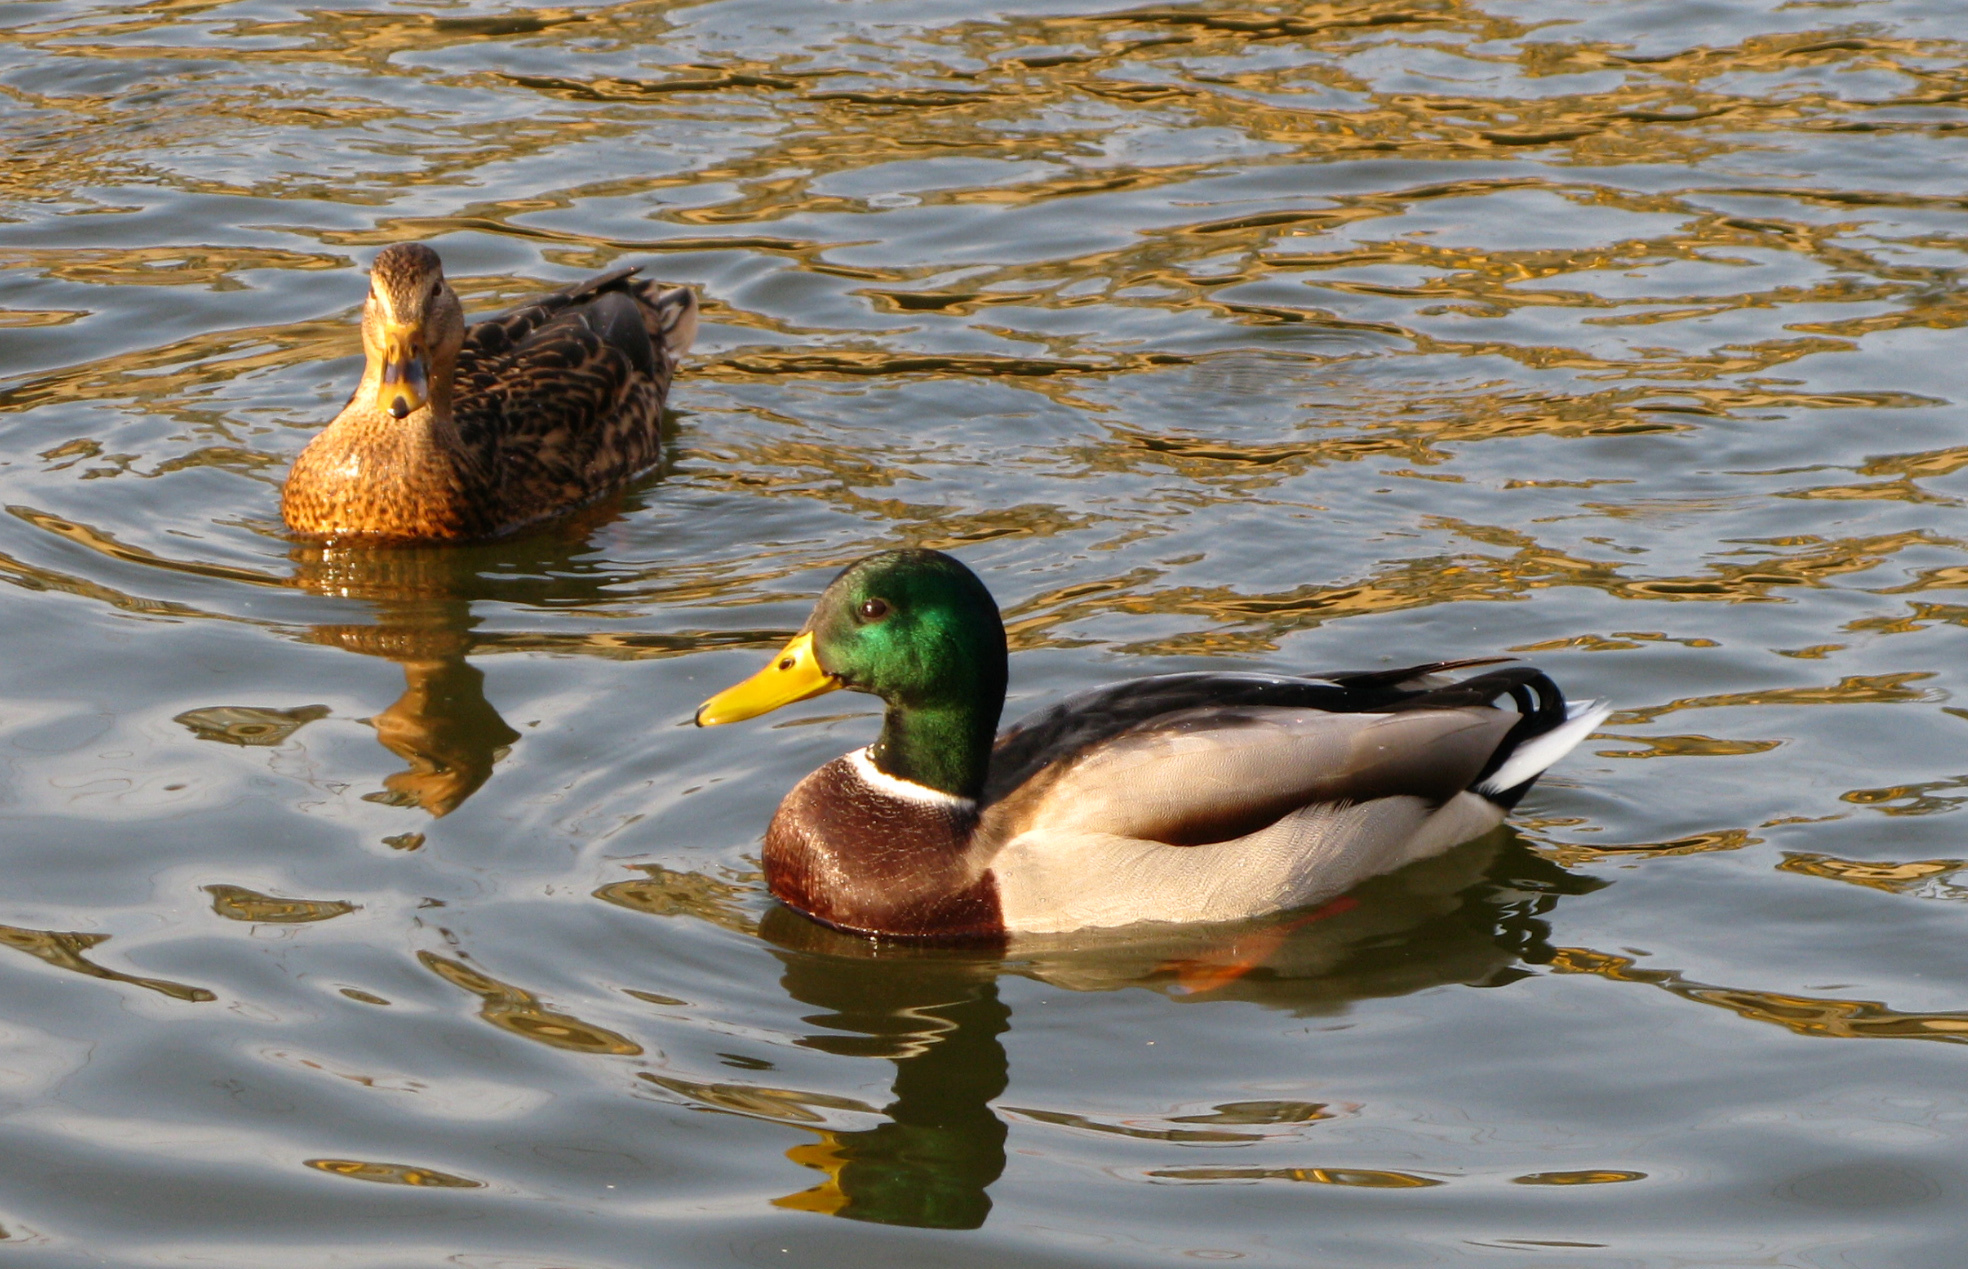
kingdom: Animalia
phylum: Chordata
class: Aves
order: Anseriformes
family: Anatidae
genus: Anas
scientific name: Anas platyrhynchos
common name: Mallard
